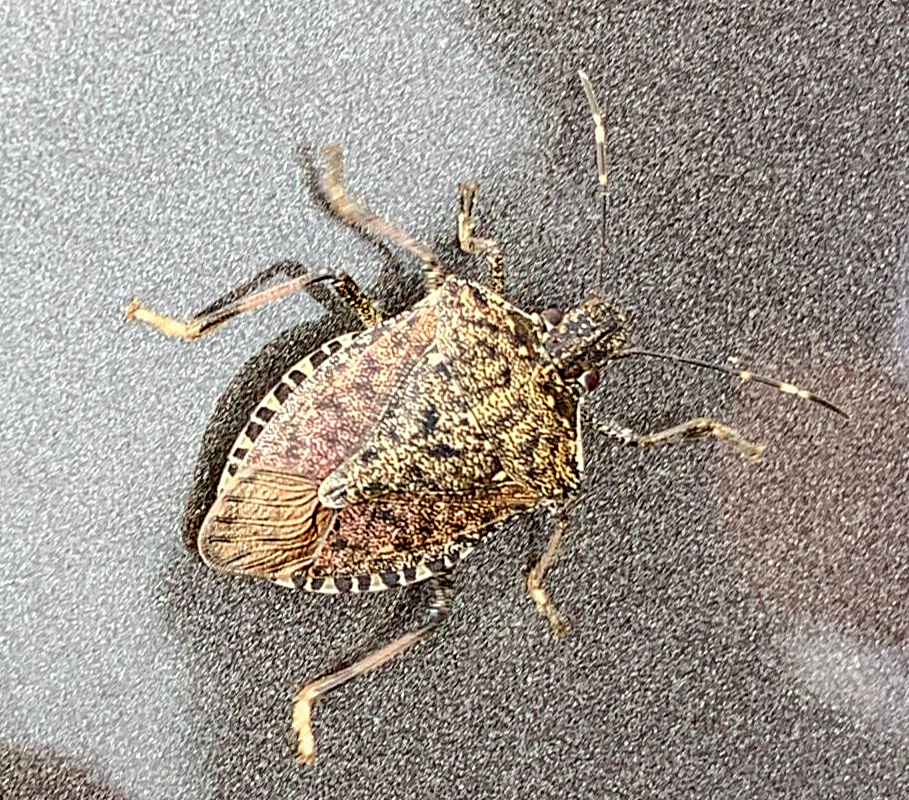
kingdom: Animalia
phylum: Arthropoda
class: Insecta
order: Hemiptera
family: Pentatomidae
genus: Halyomorpha
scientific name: Halyomorpha halys
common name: Brown marmorated stink bug
